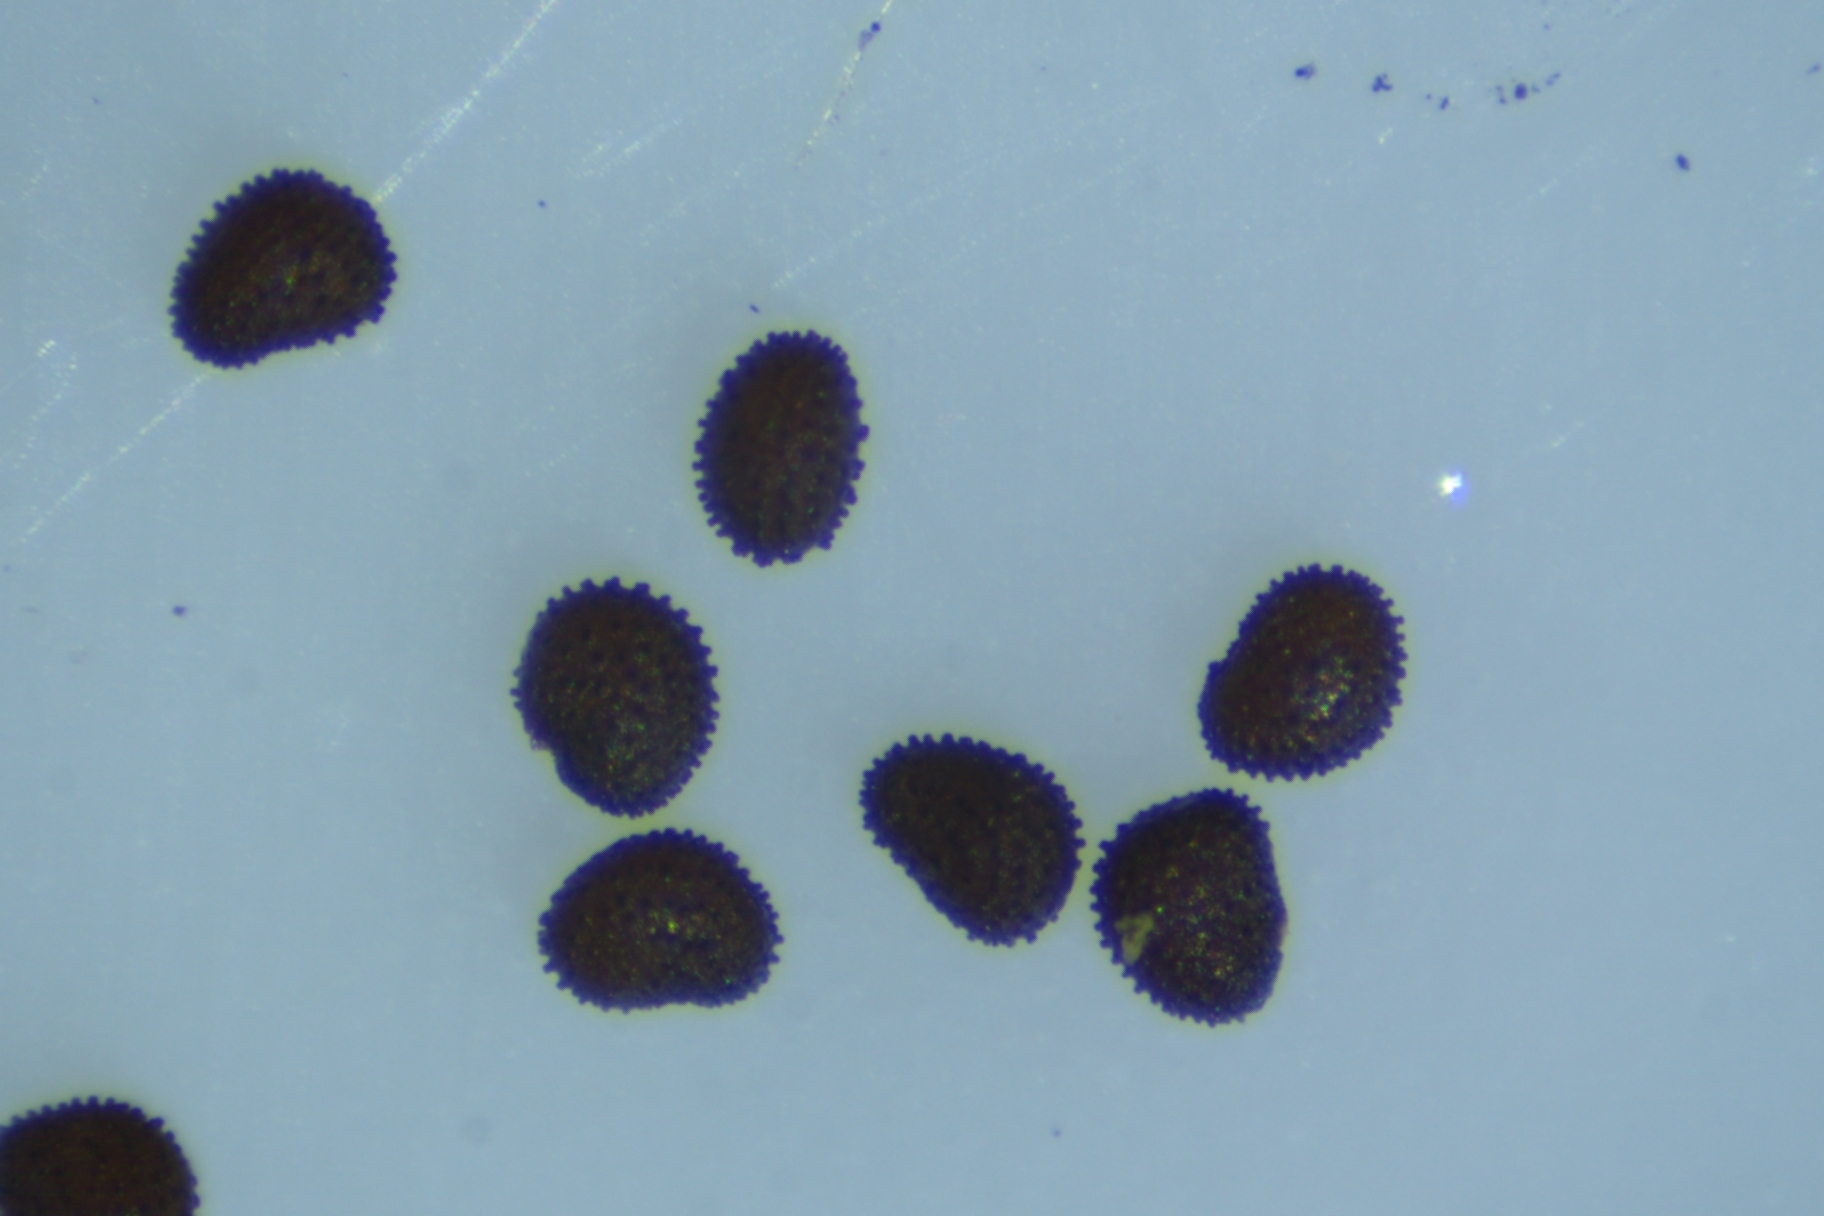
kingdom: Plantae
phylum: Tracheophyta
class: Magnoliopsida
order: Caryophyllales
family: Caryophyllaceae
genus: Sagina
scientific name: Sagina japonica
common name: Japanese pearlwort
